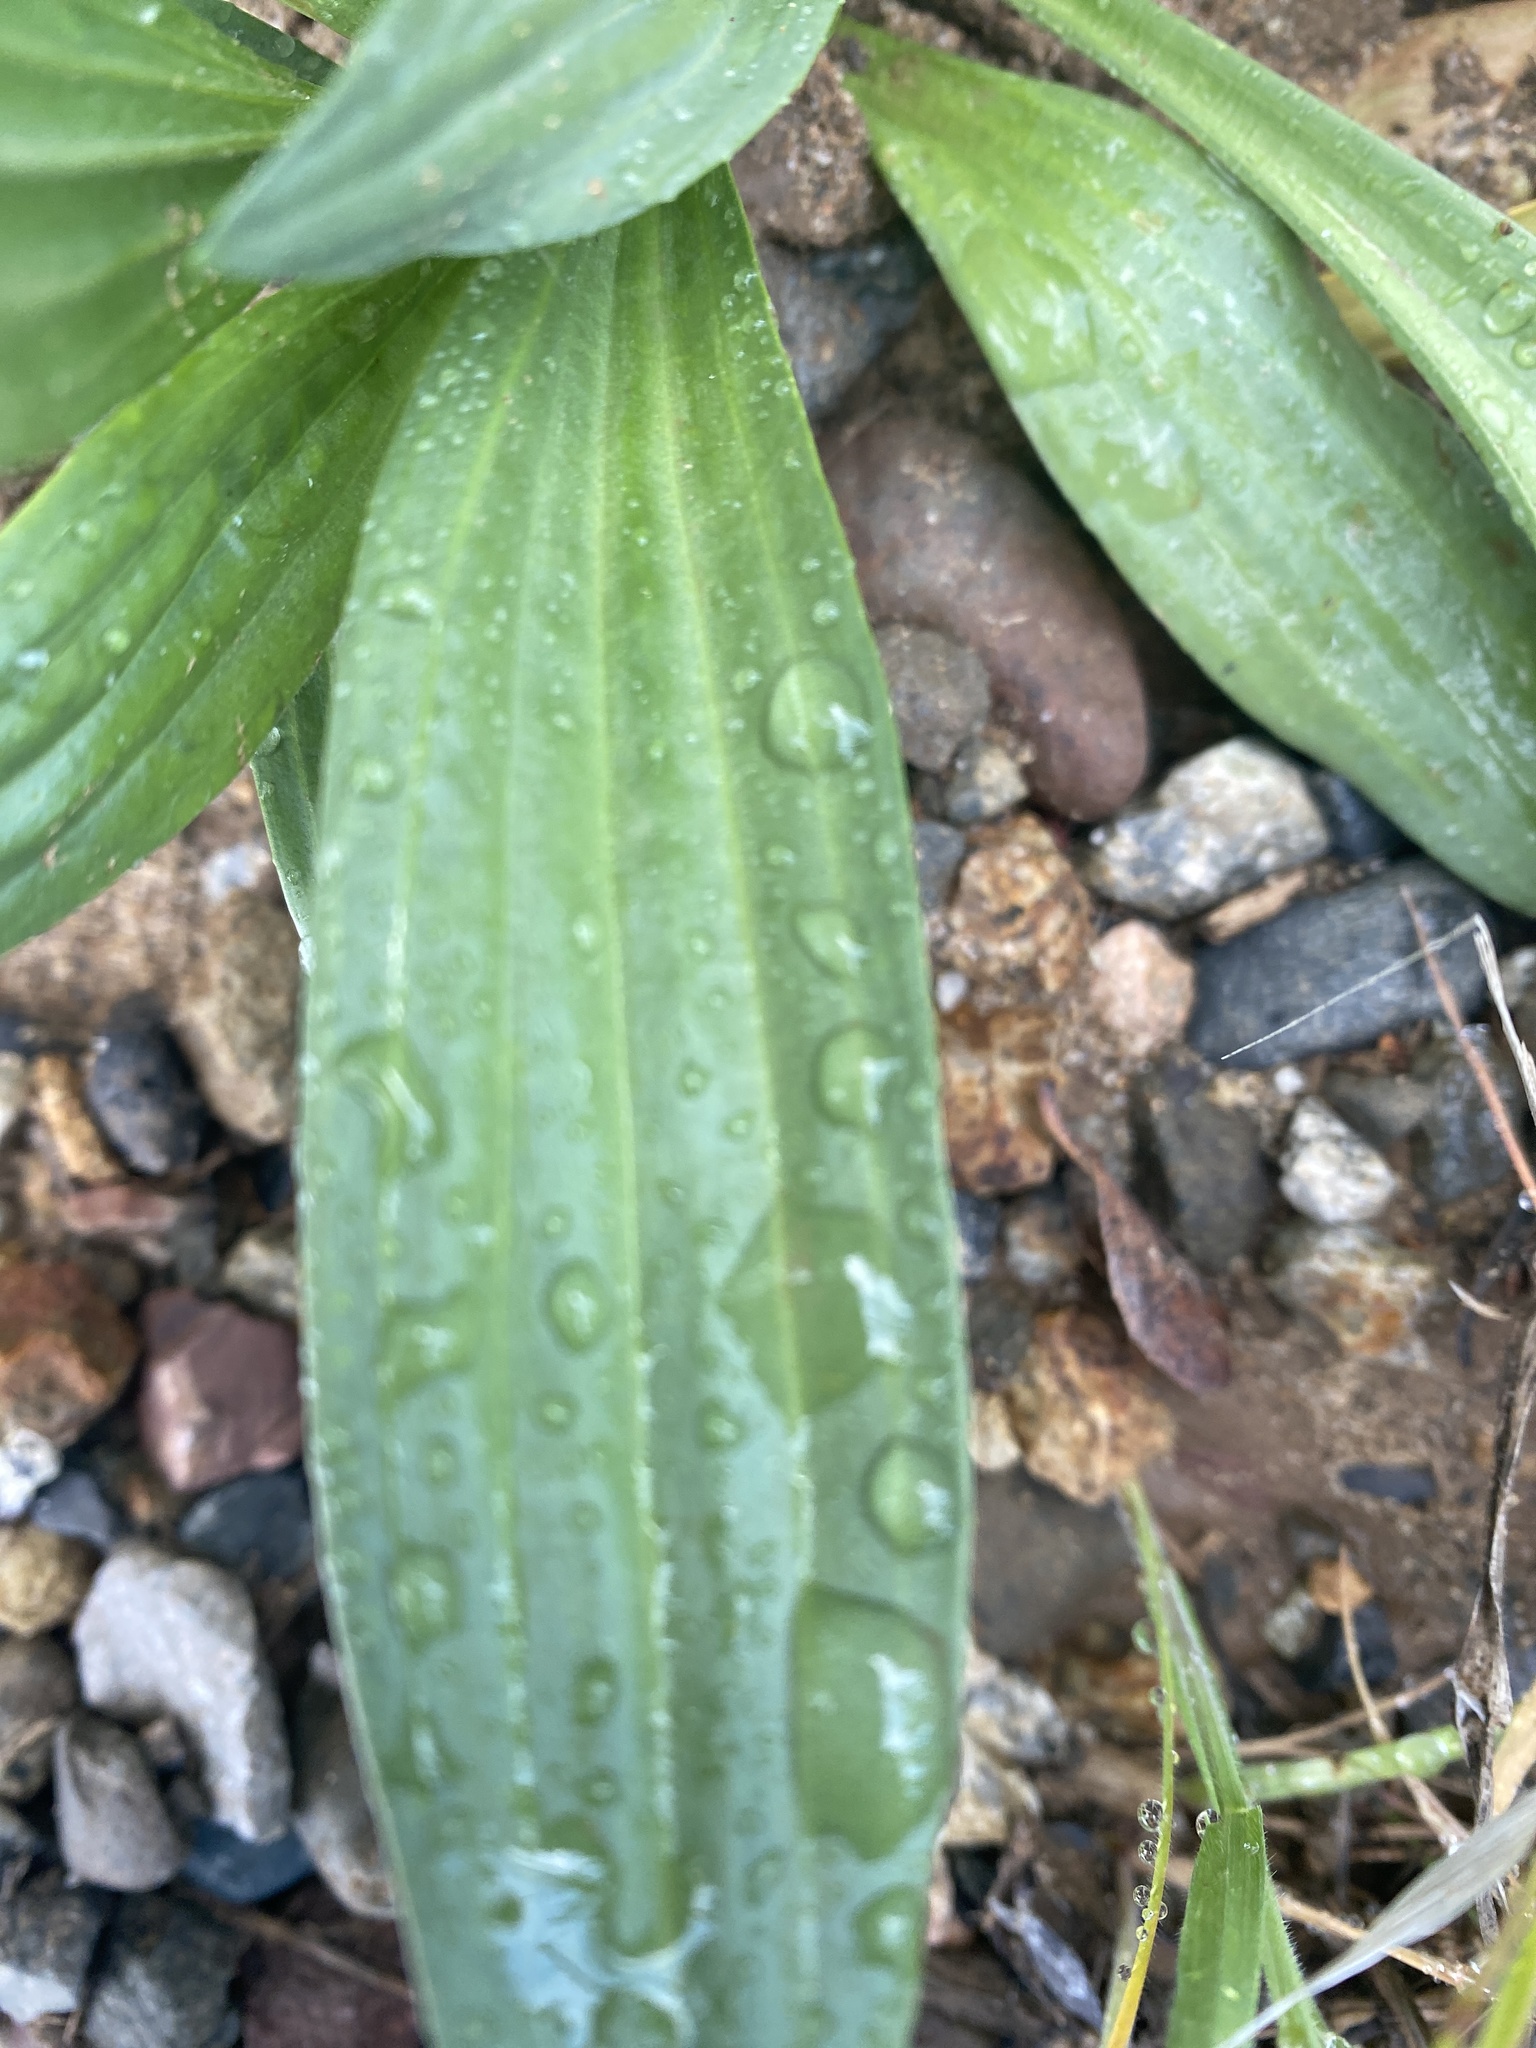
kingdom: Plantae
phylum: Tracheophyta
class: Magnoliopsida
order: Lamiales
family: Plantaginaceae
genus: Plantago
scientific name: Plantago lanceolata
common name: Ribwort plantain
